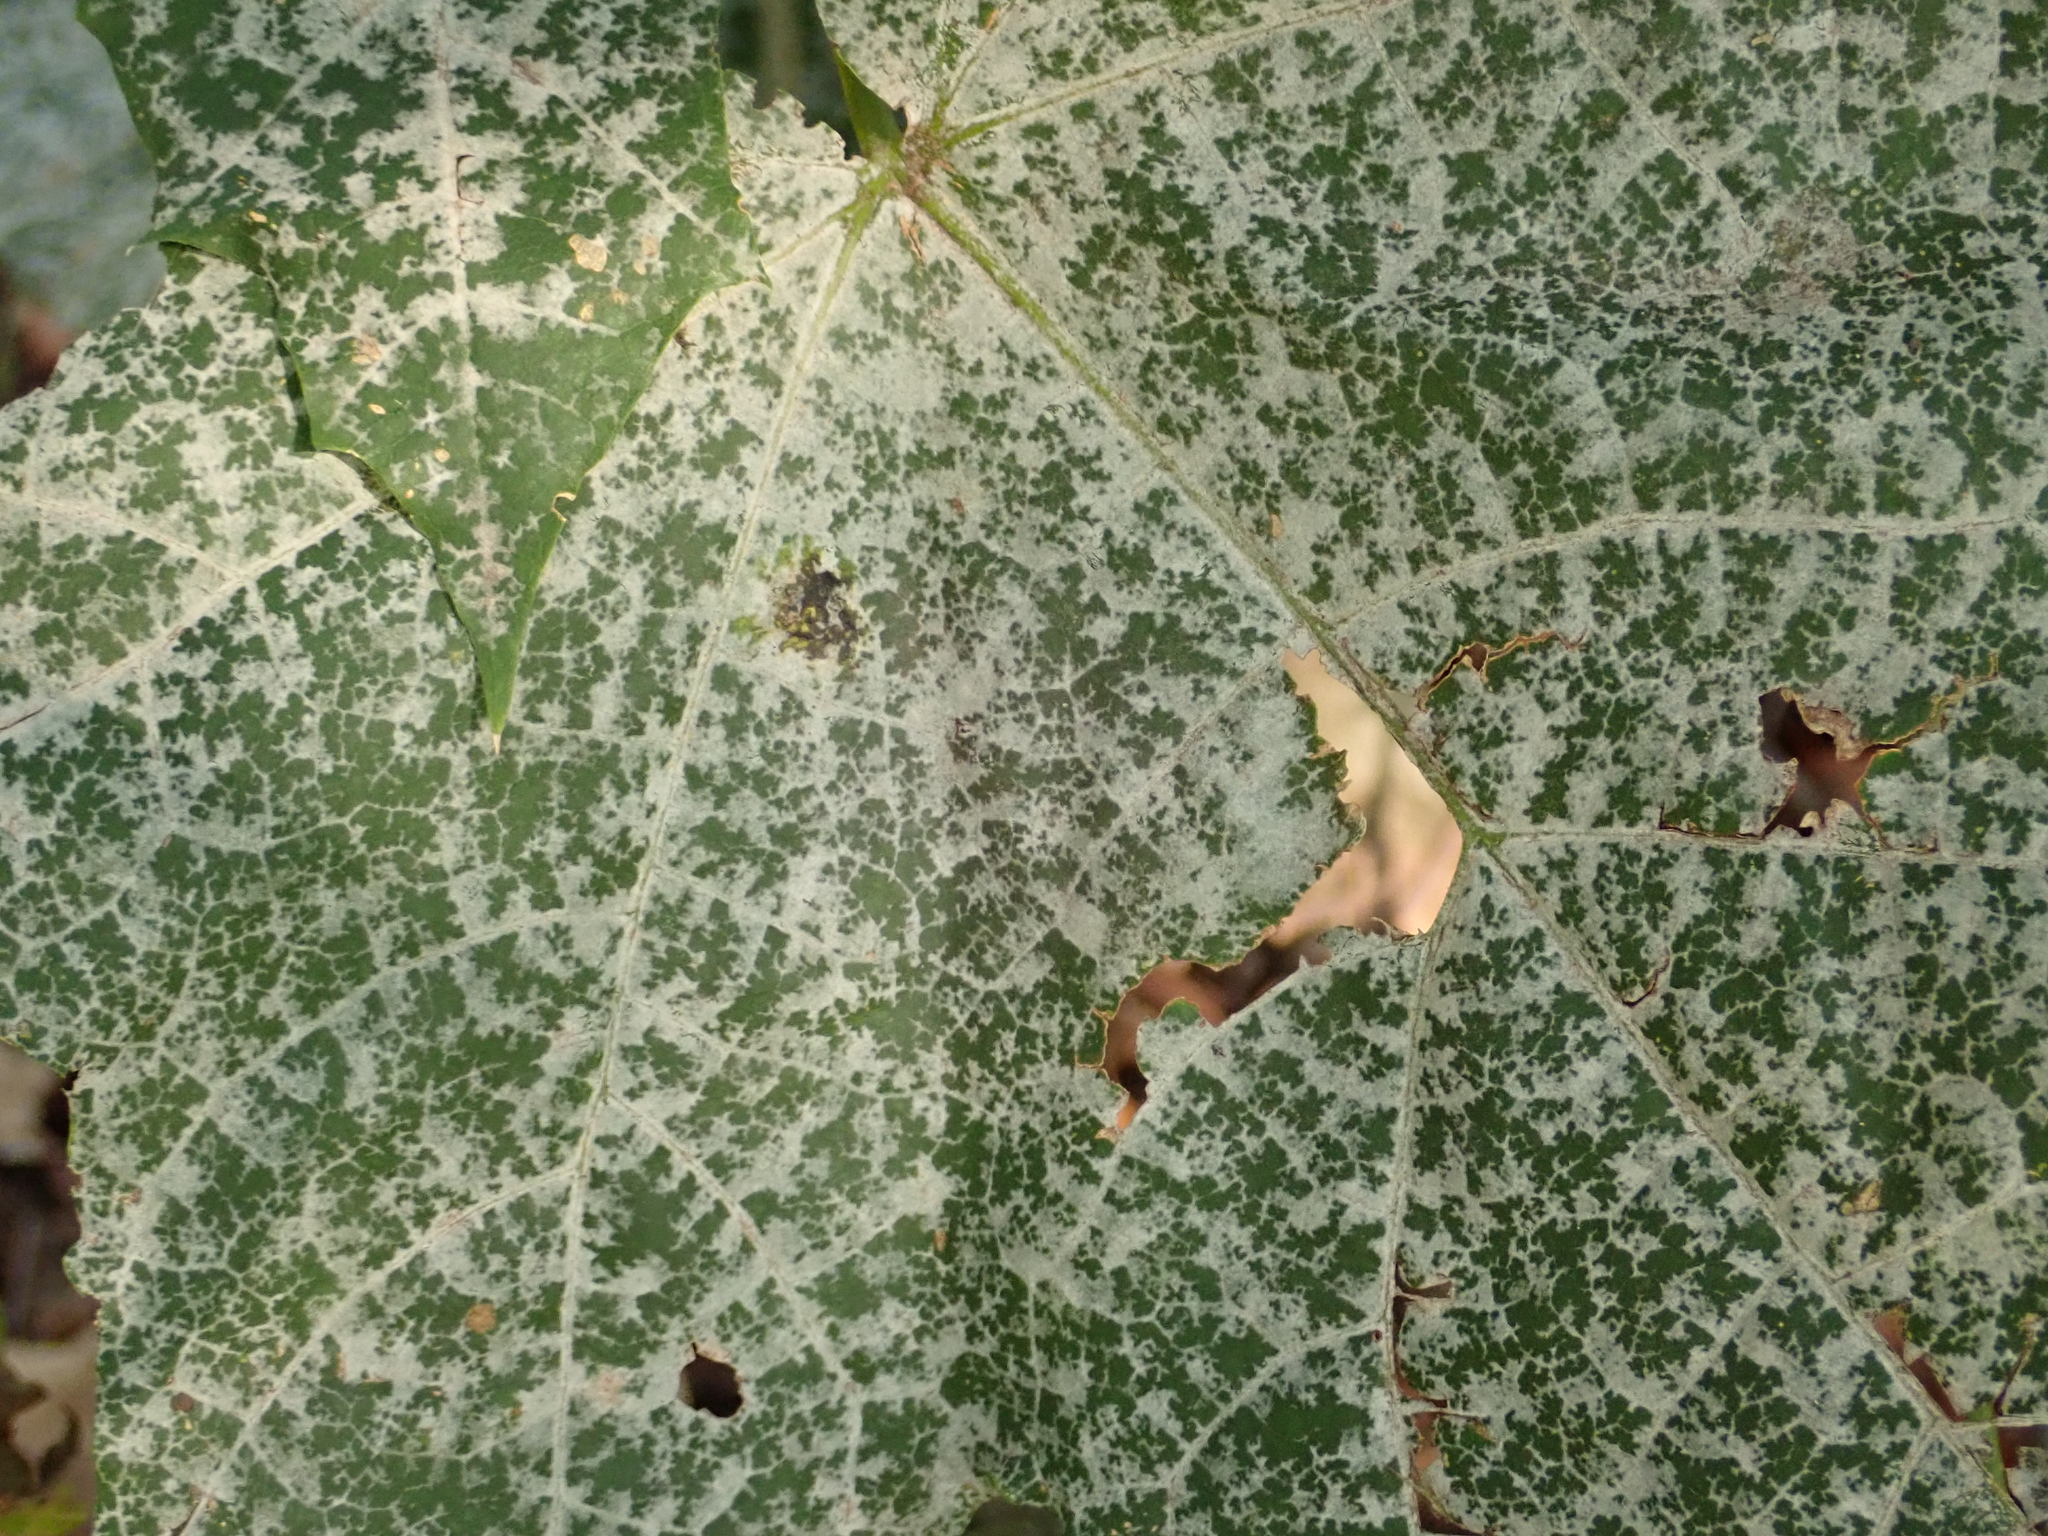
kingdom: Fungi
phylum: Ascomycota
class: Leotiomycetes
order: Helotiales
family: Erysiphaceae
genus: Sawadaea
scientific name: Sawadaea tulasnei
